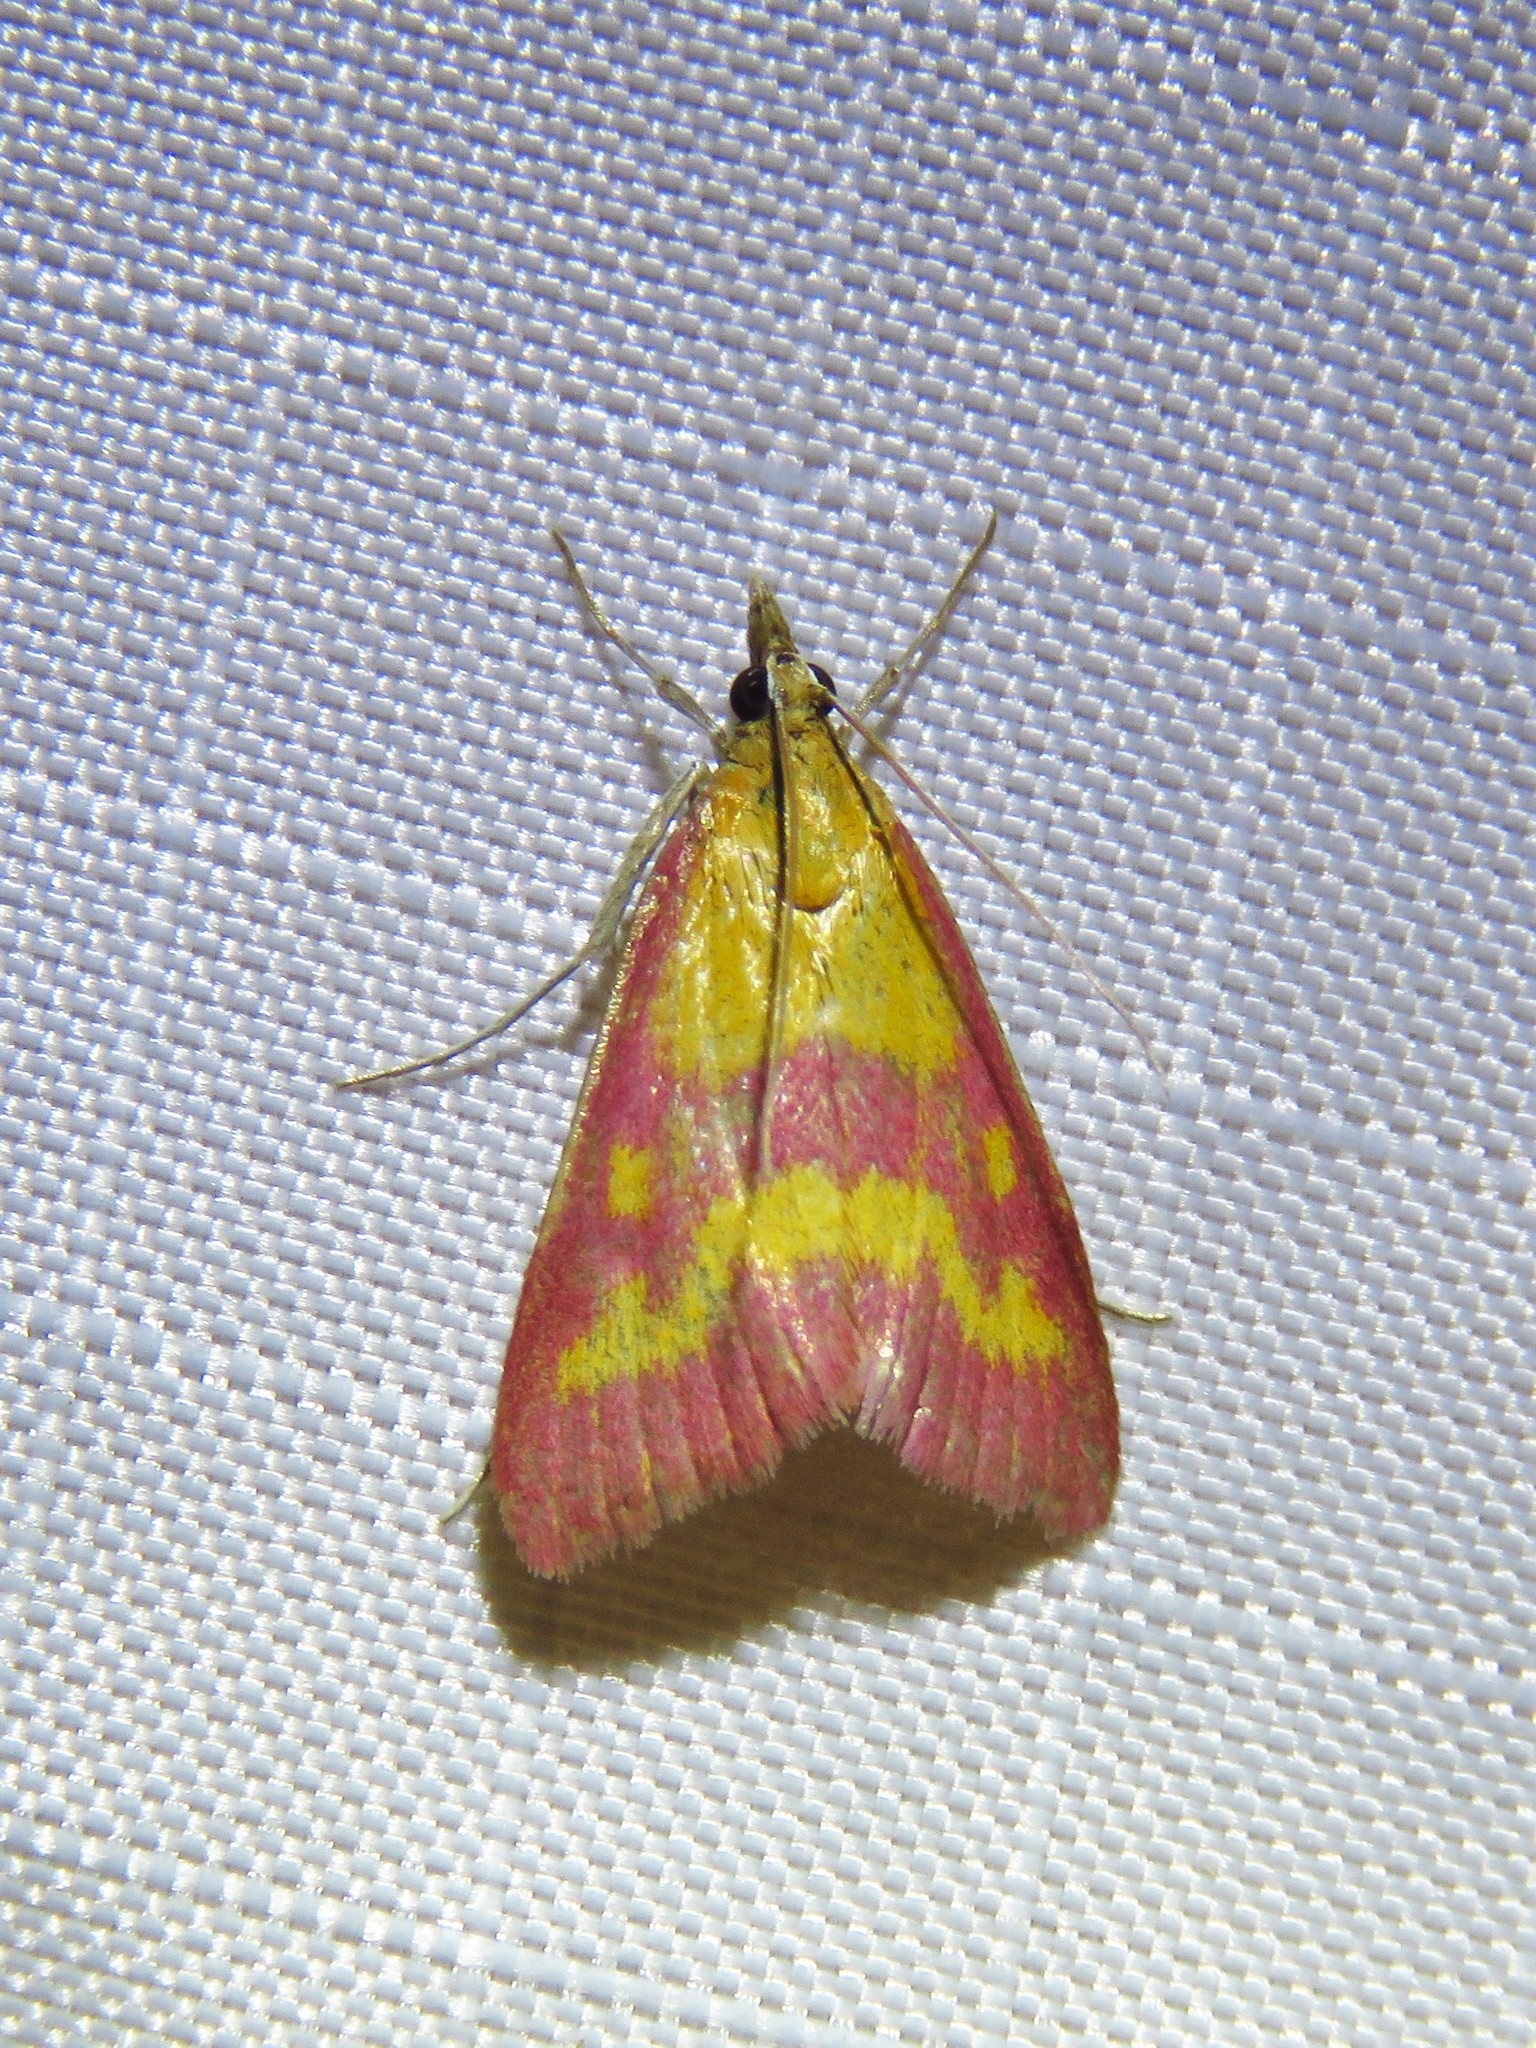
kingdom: Animalia
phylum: Arthropoda
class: Insecta
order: Lepidoptera
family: Crambidae
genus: Pyrausta
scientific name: Pyrausta laticlavia
